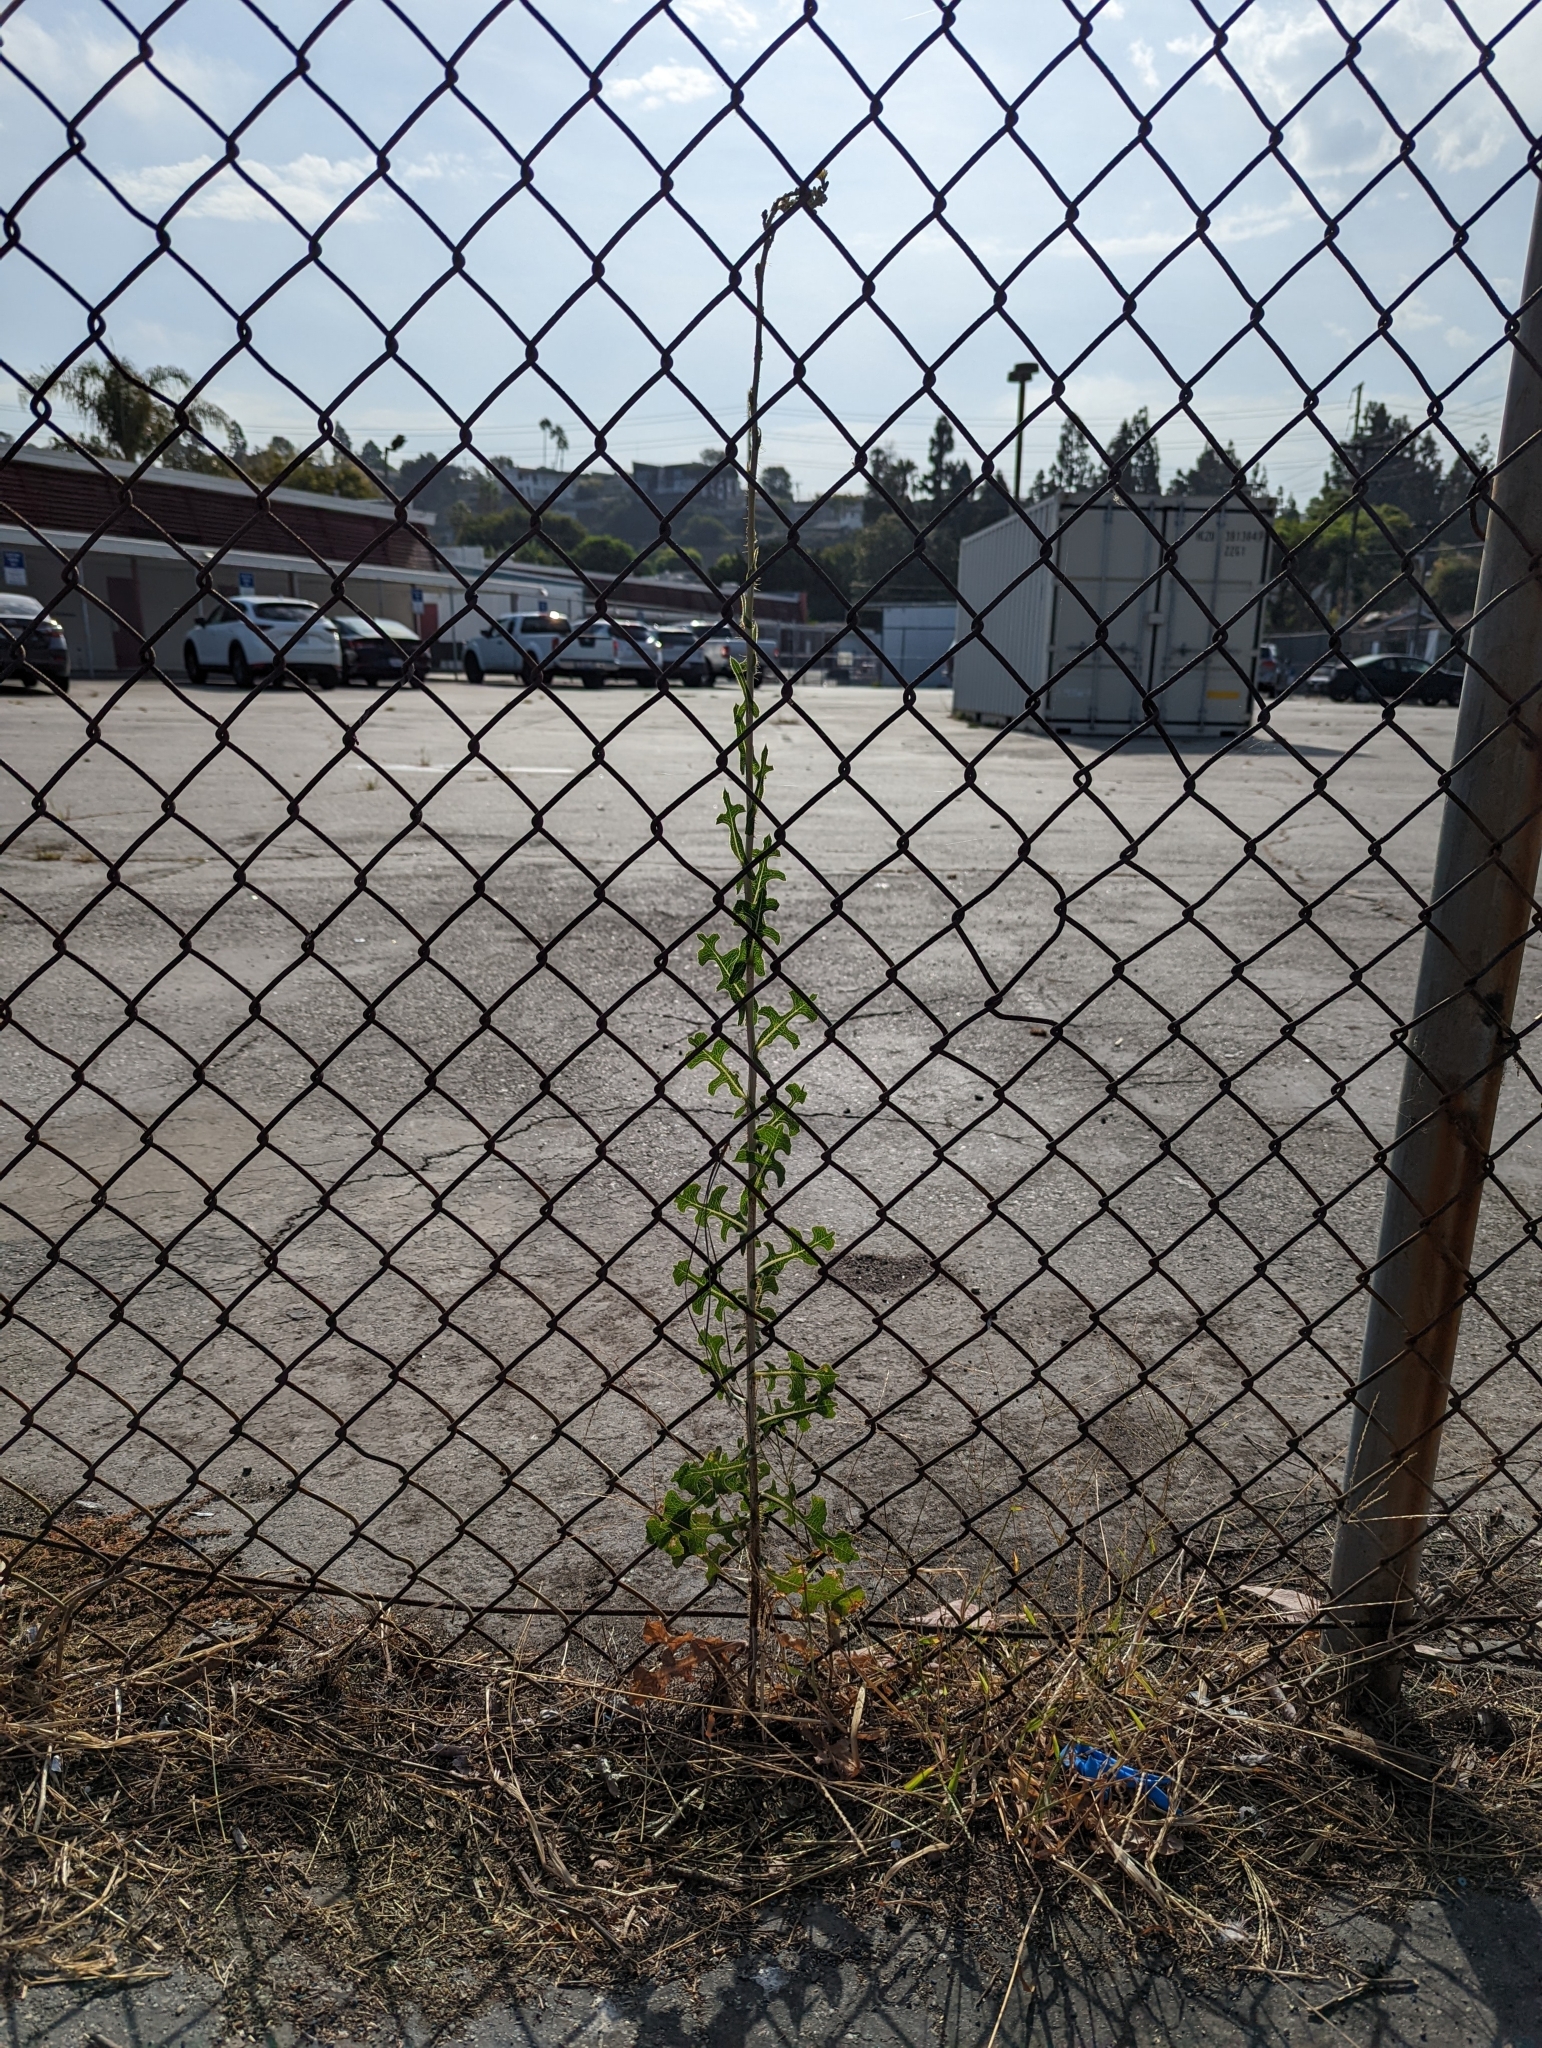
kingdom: Plantae
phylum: Tracheophyta
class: Magnoliopsida
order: Asterales
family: Asteraceae
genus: Lactuca
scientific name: Lactuca serriola
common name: Prickly lettuce
